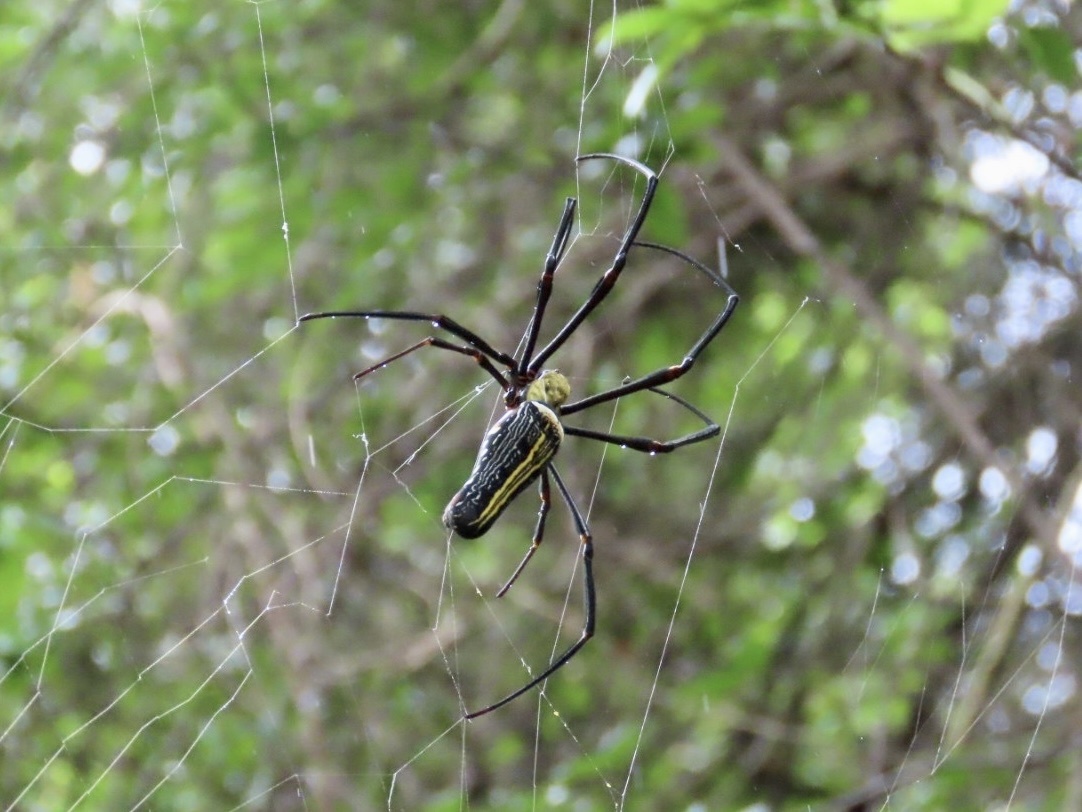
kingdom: Animalia
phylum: Arthropoda
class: Arachnida
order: Araneae
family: Araneidae
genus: Nephila
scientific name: Nephila pilipes
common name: Giant golden orb weaver
